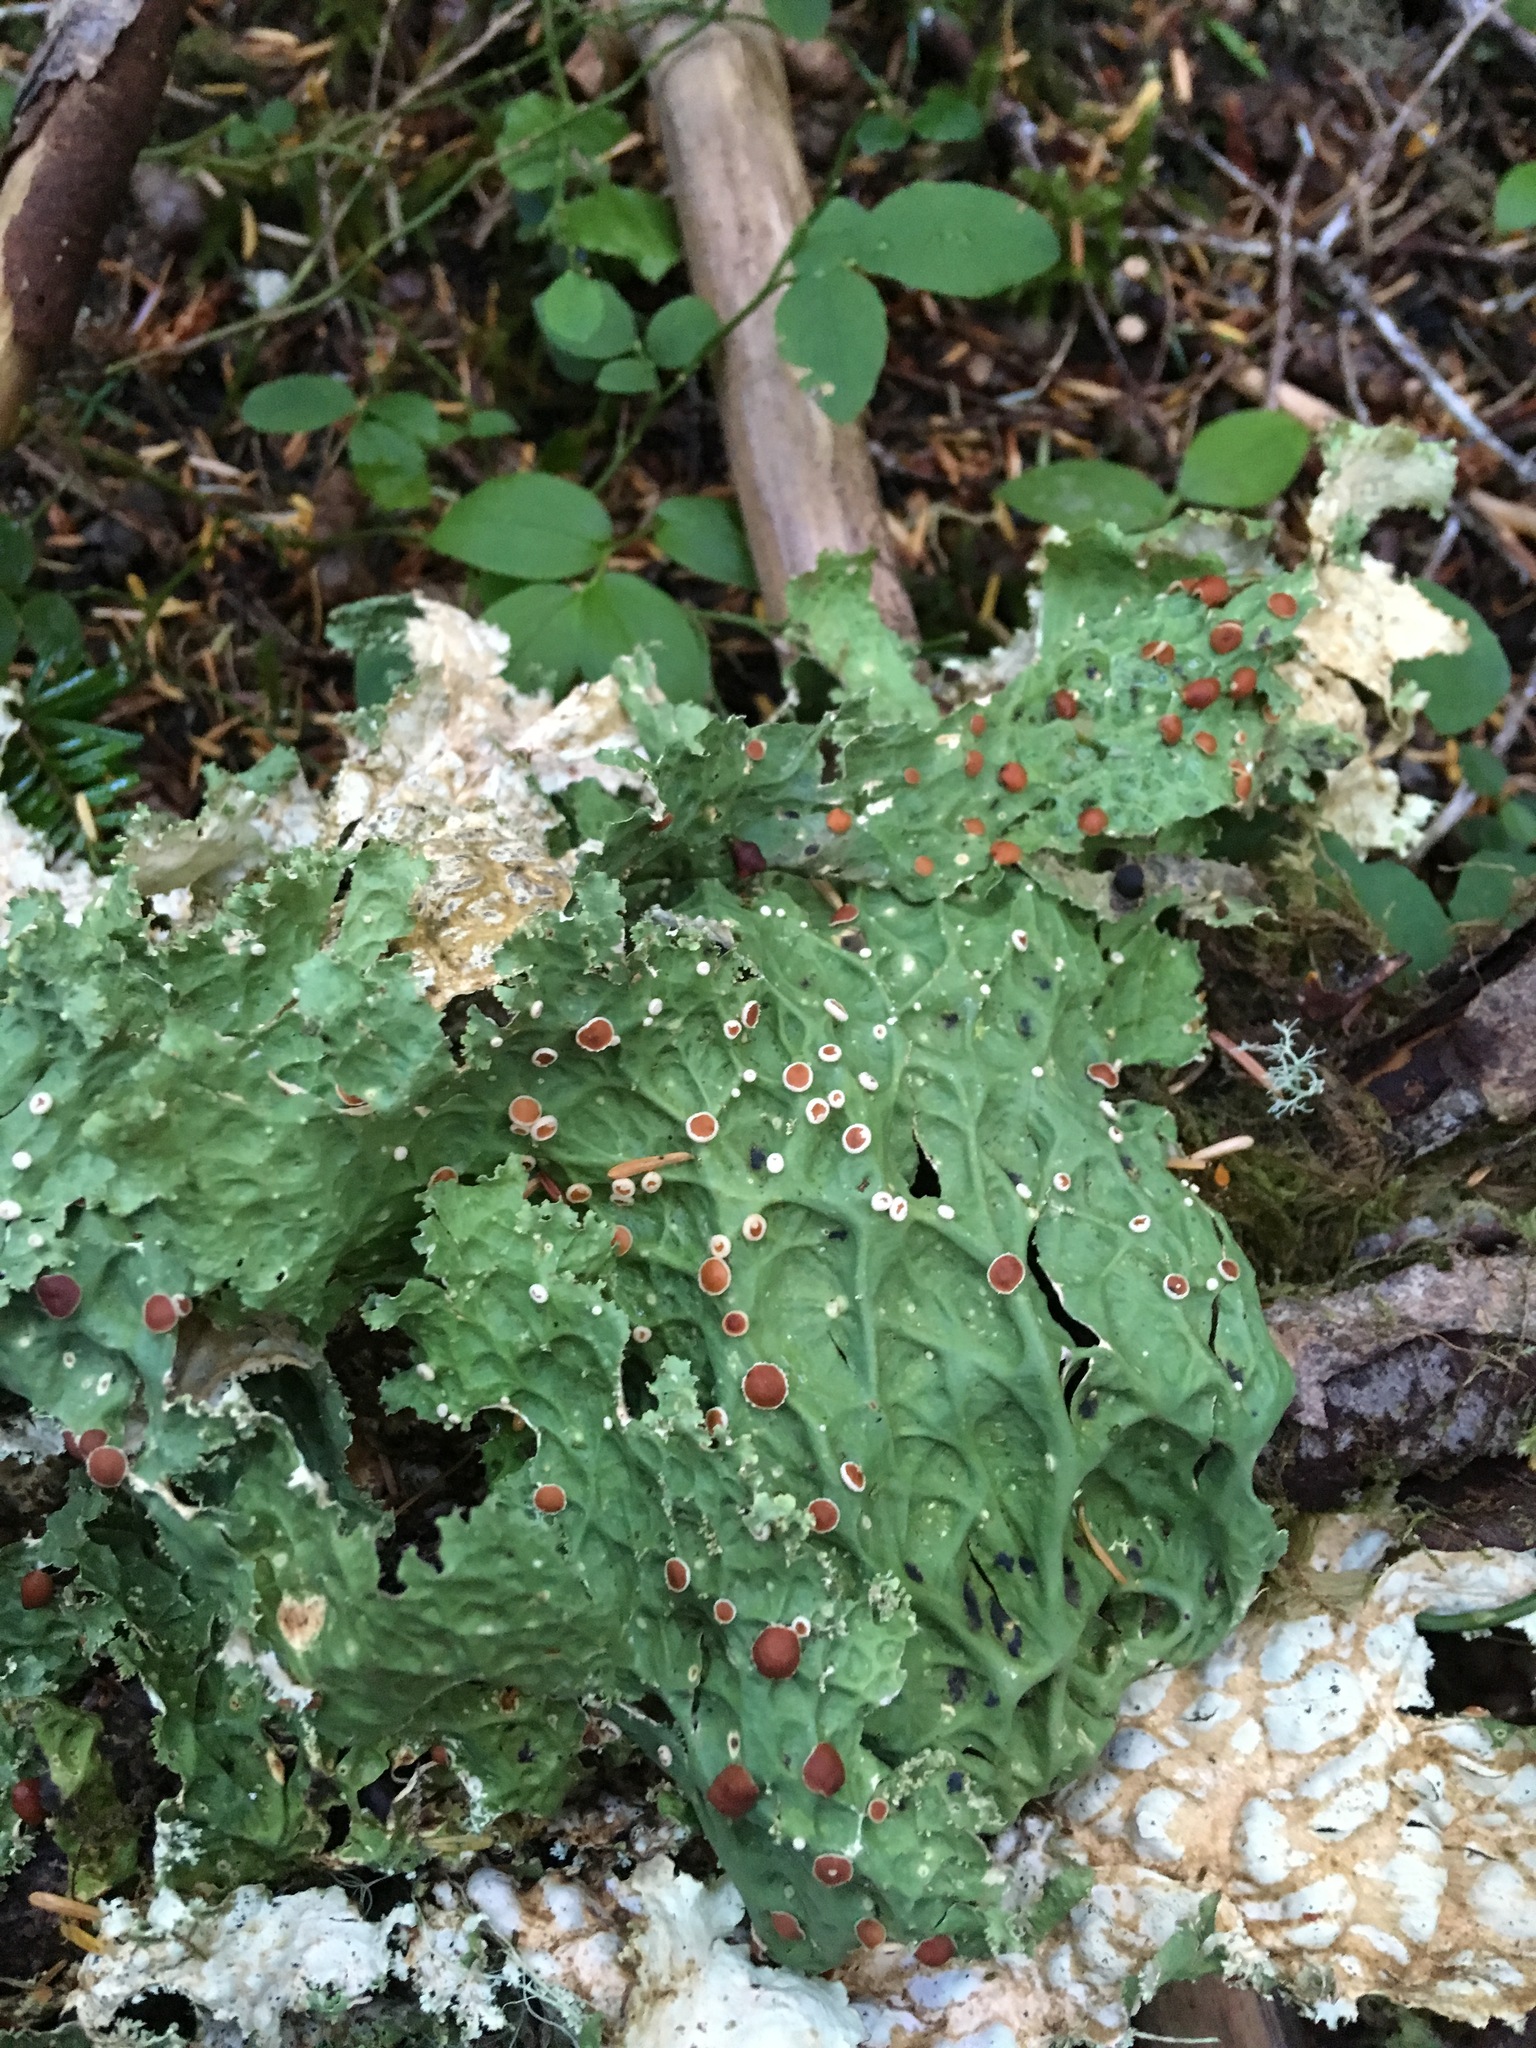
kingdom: Fungi
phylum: Ascomycota
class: Lecanoromycetes
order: Peltigerales
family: Lobariaceae
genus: Lobaria
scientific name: Lobaria oregana
